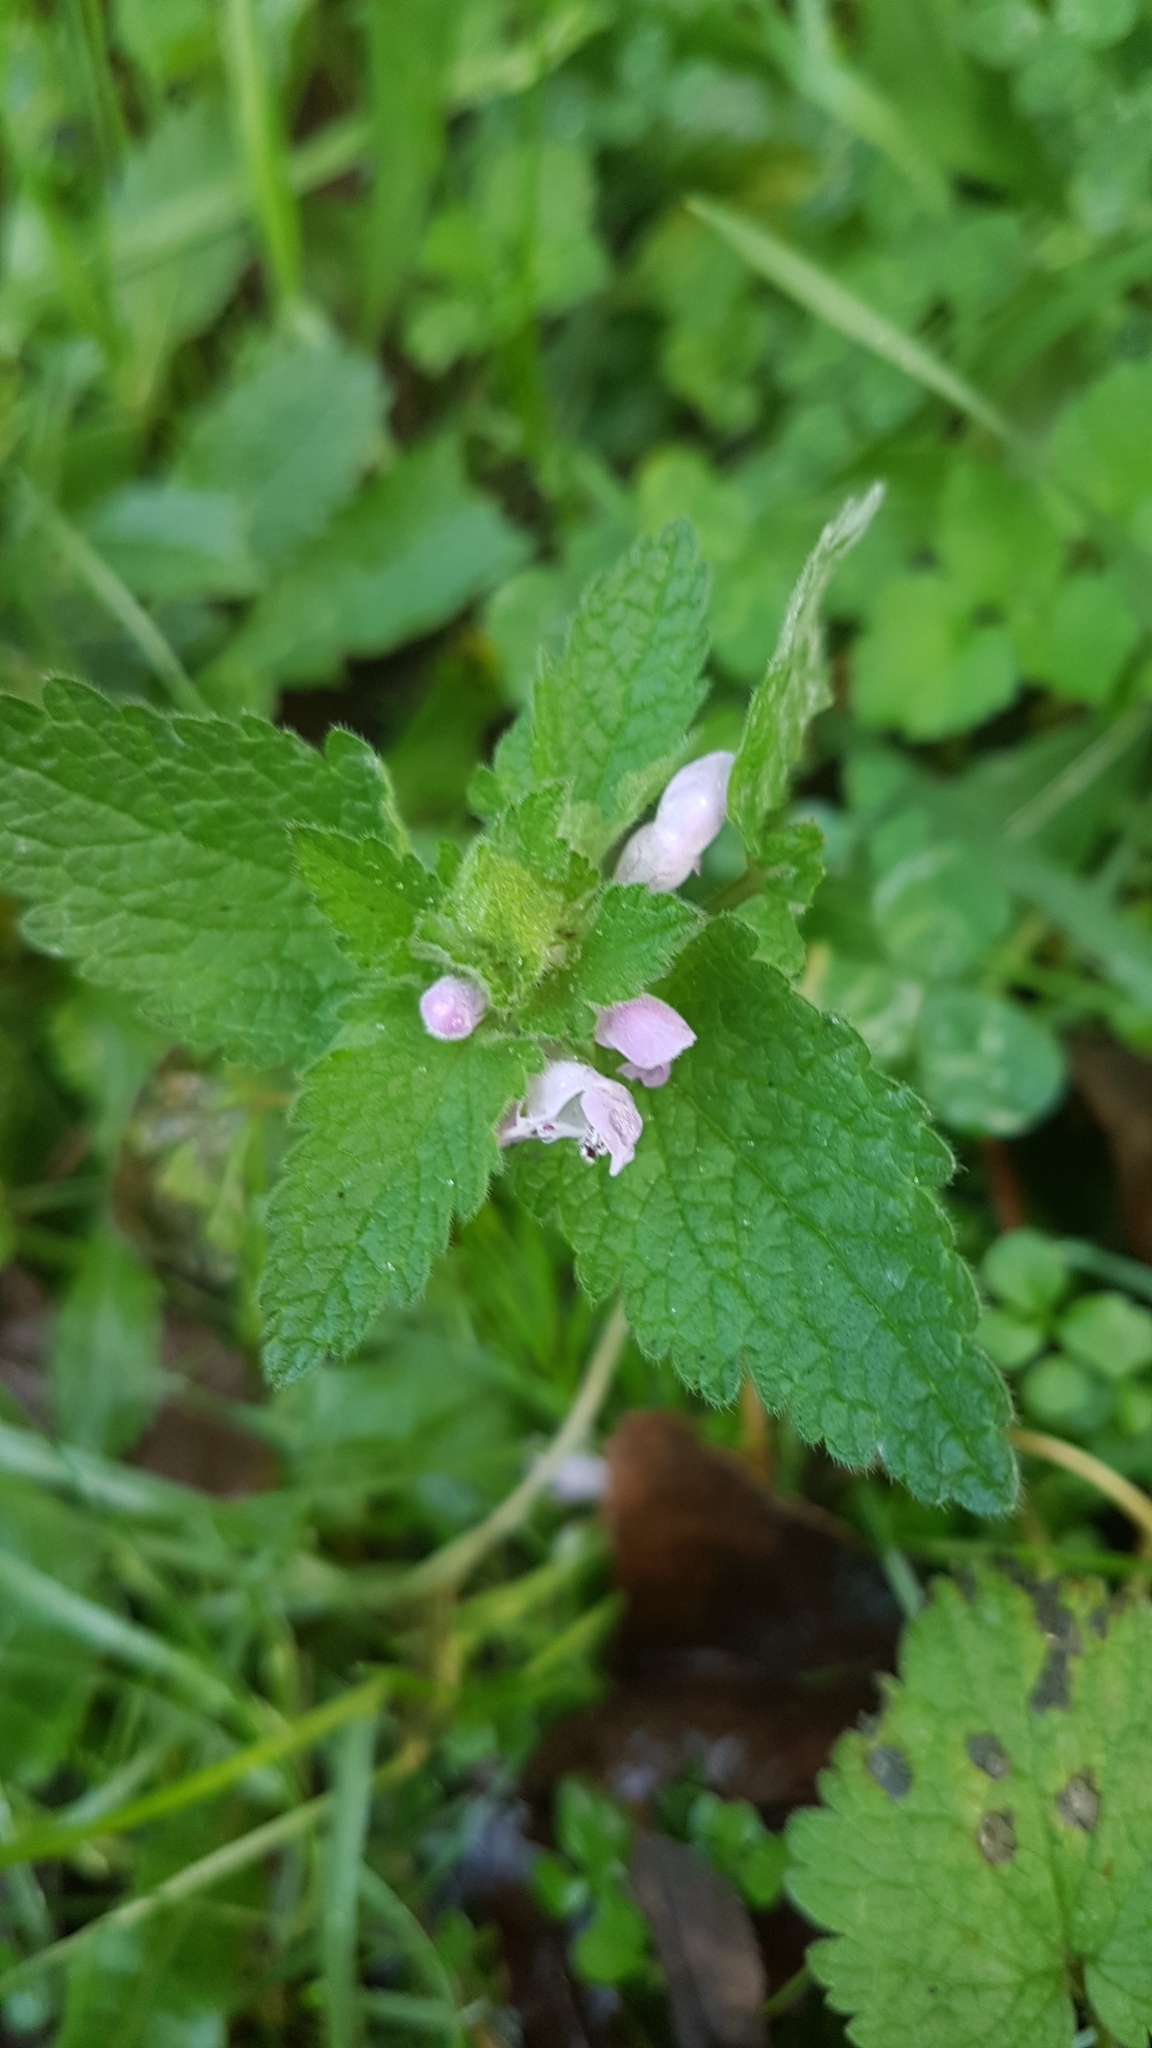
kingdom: Plantae
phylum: Tracheophyta
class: Magnoliopsida
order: Lamiales
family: Lamiaceae
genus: Lamium
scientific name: Lamium purpureum
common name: Red dead-nettle
